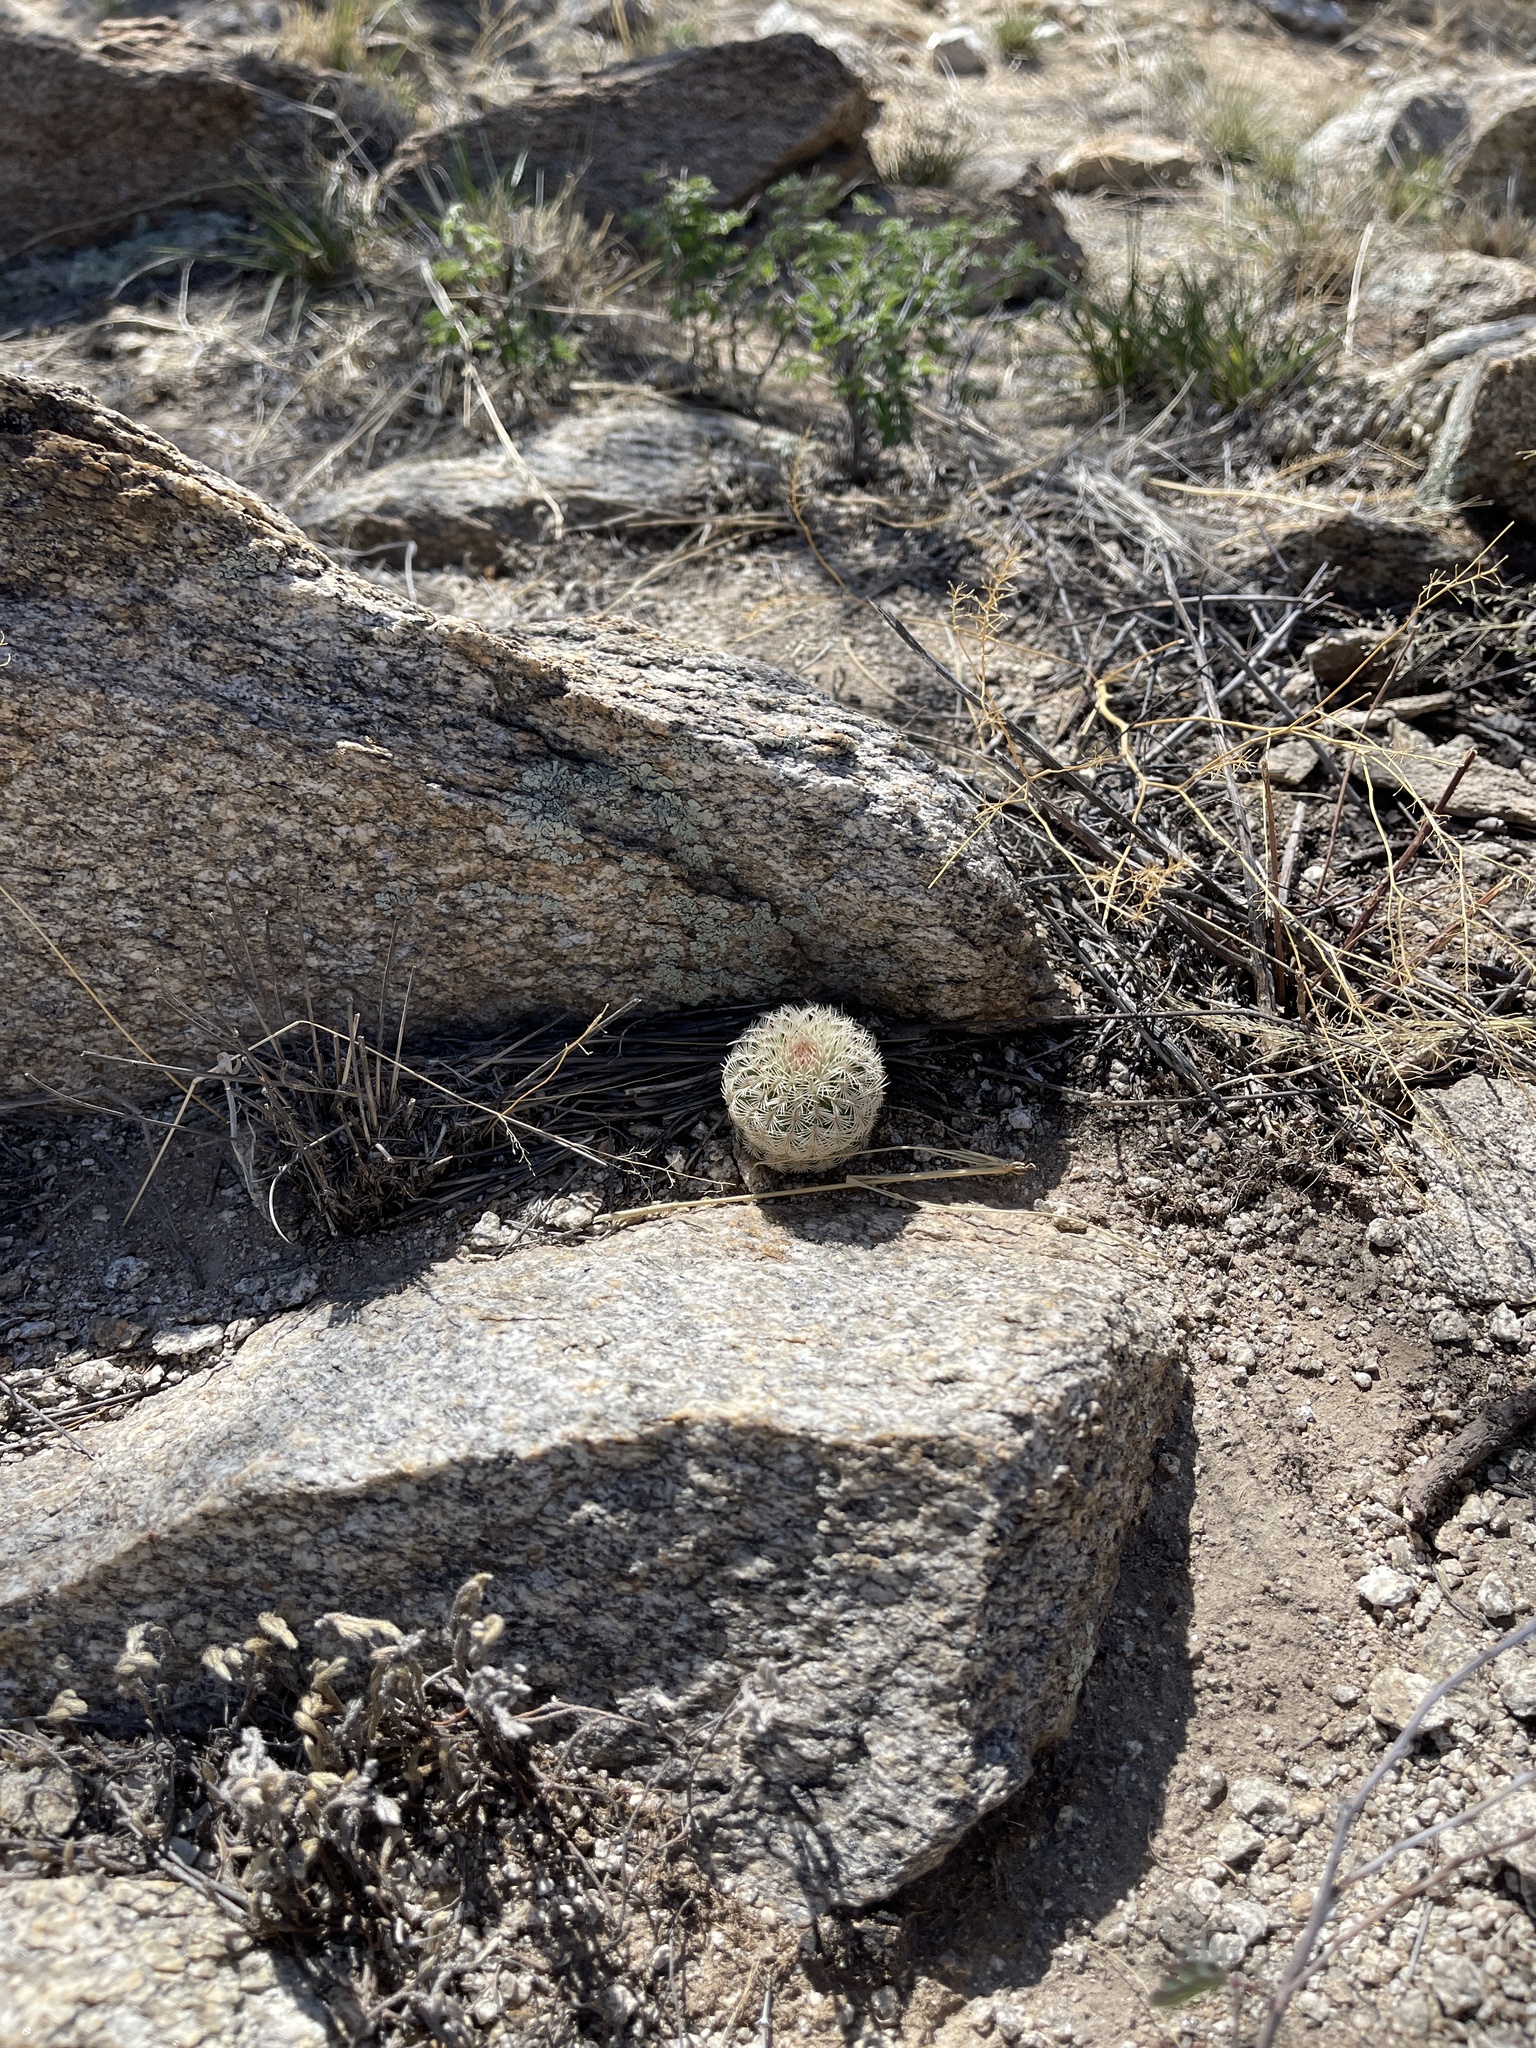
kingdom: Plantae
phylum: Tracheophyta
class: Magnoliopsida
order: Caryophyllales
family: Cactaceae
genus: Echinocereus
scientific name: Echinocereus rigidissimus
